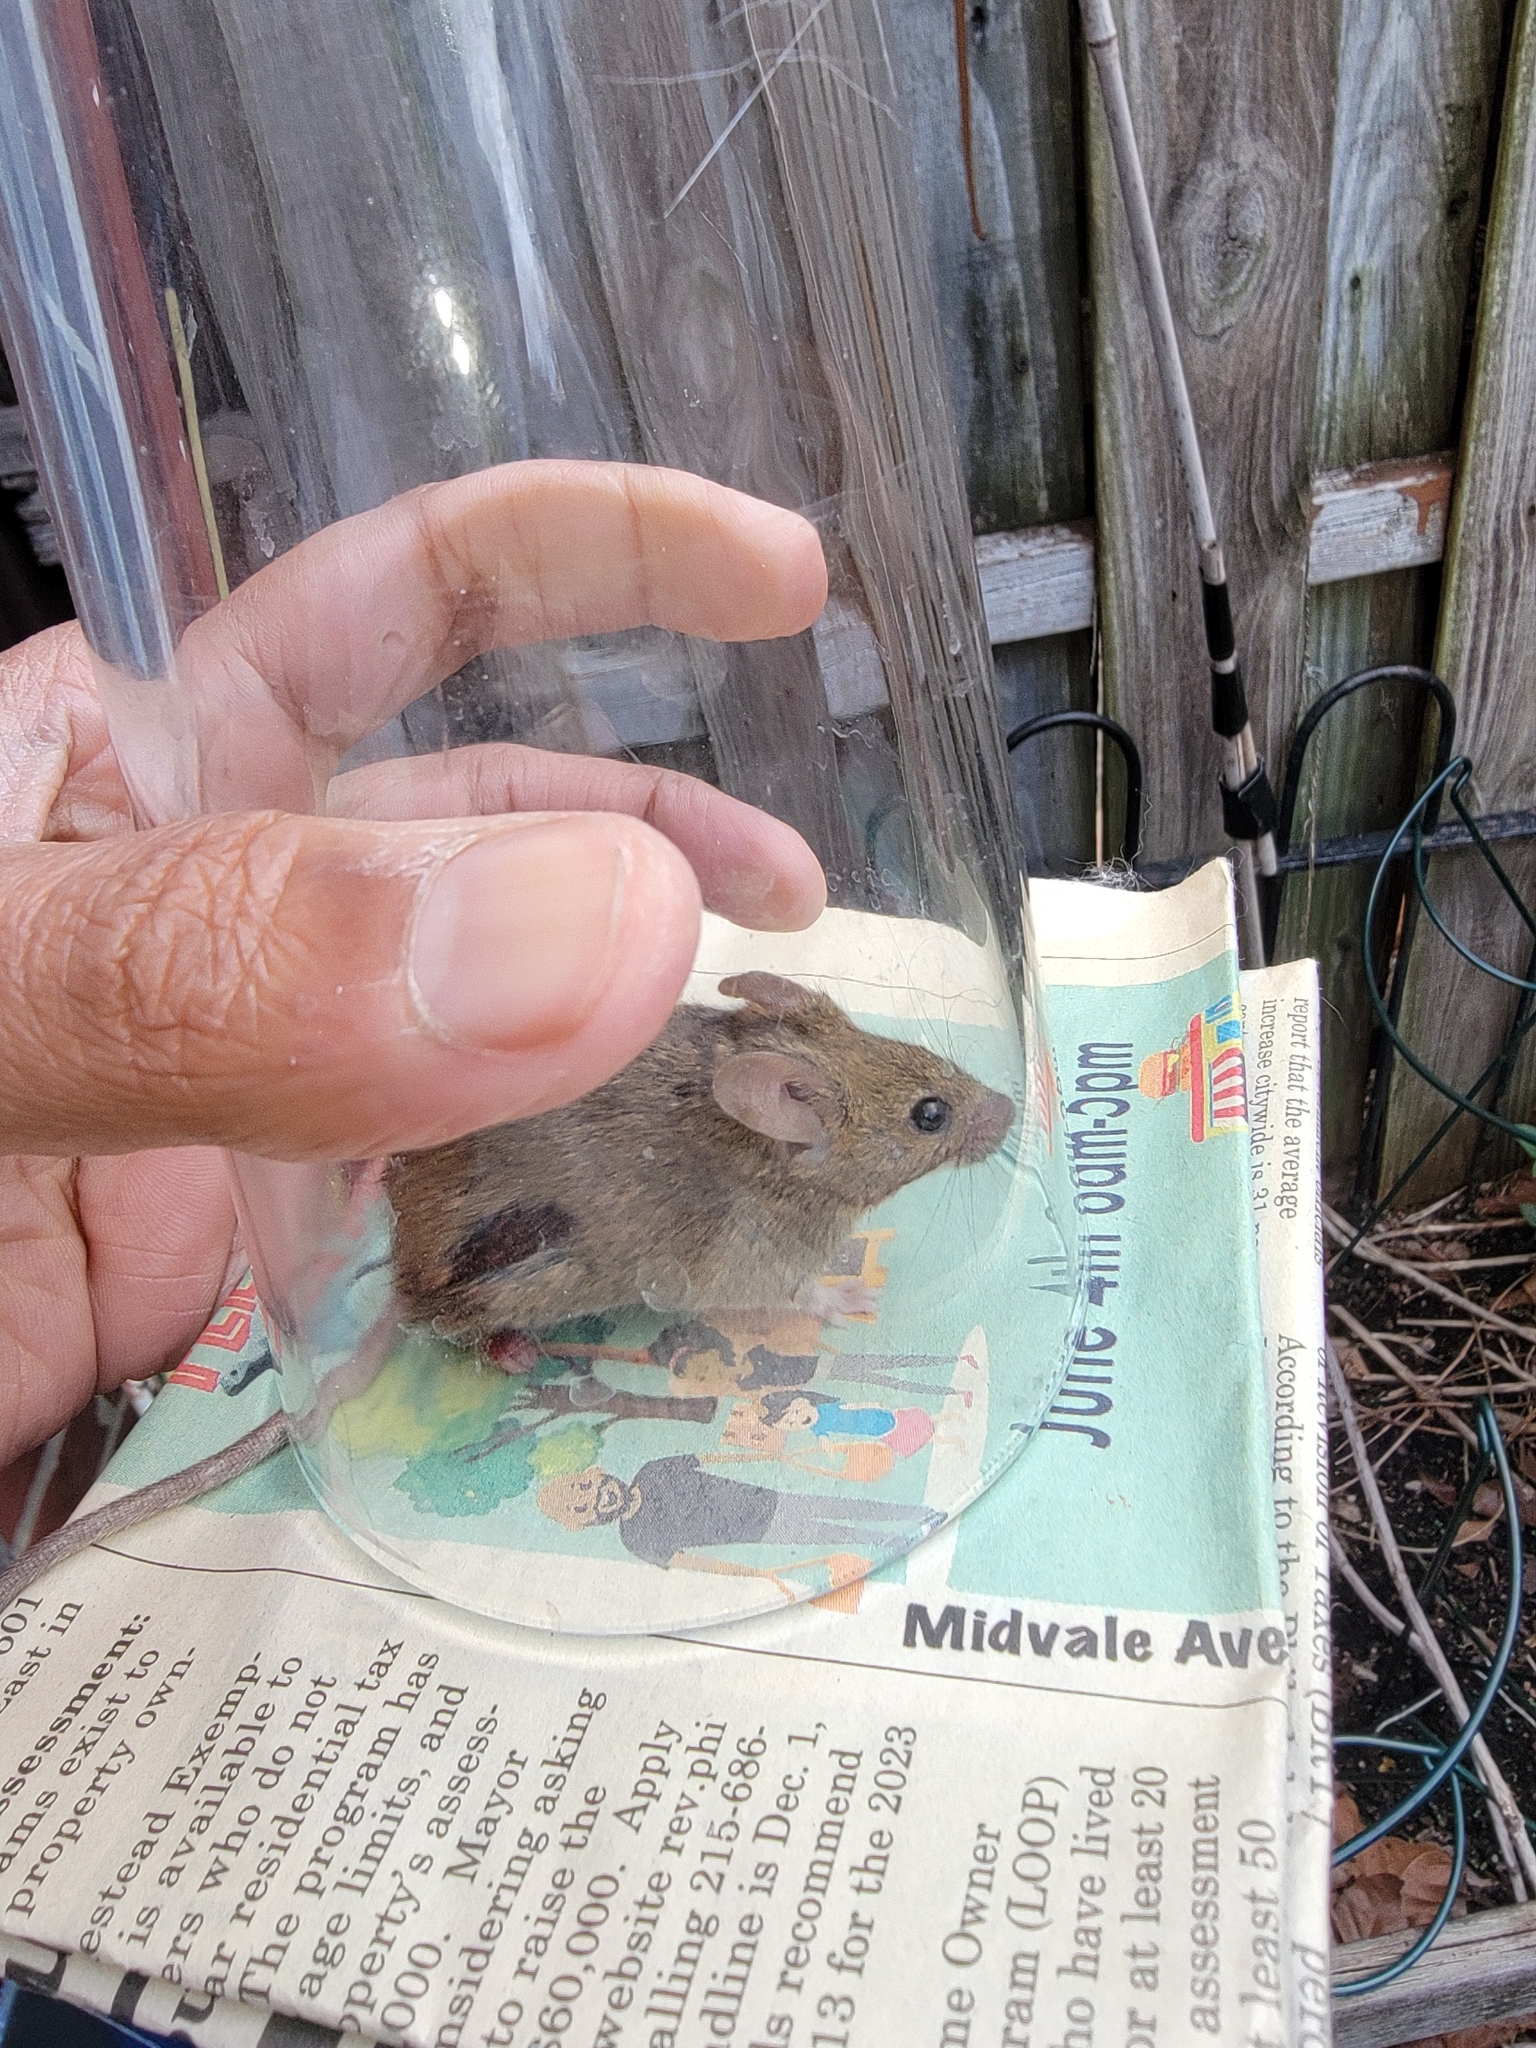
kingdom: Animalia
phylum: Chordata
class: Mammalia
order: Rodentia
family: Muridae
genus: Mus
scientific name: Mus musculus
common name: House mouse
